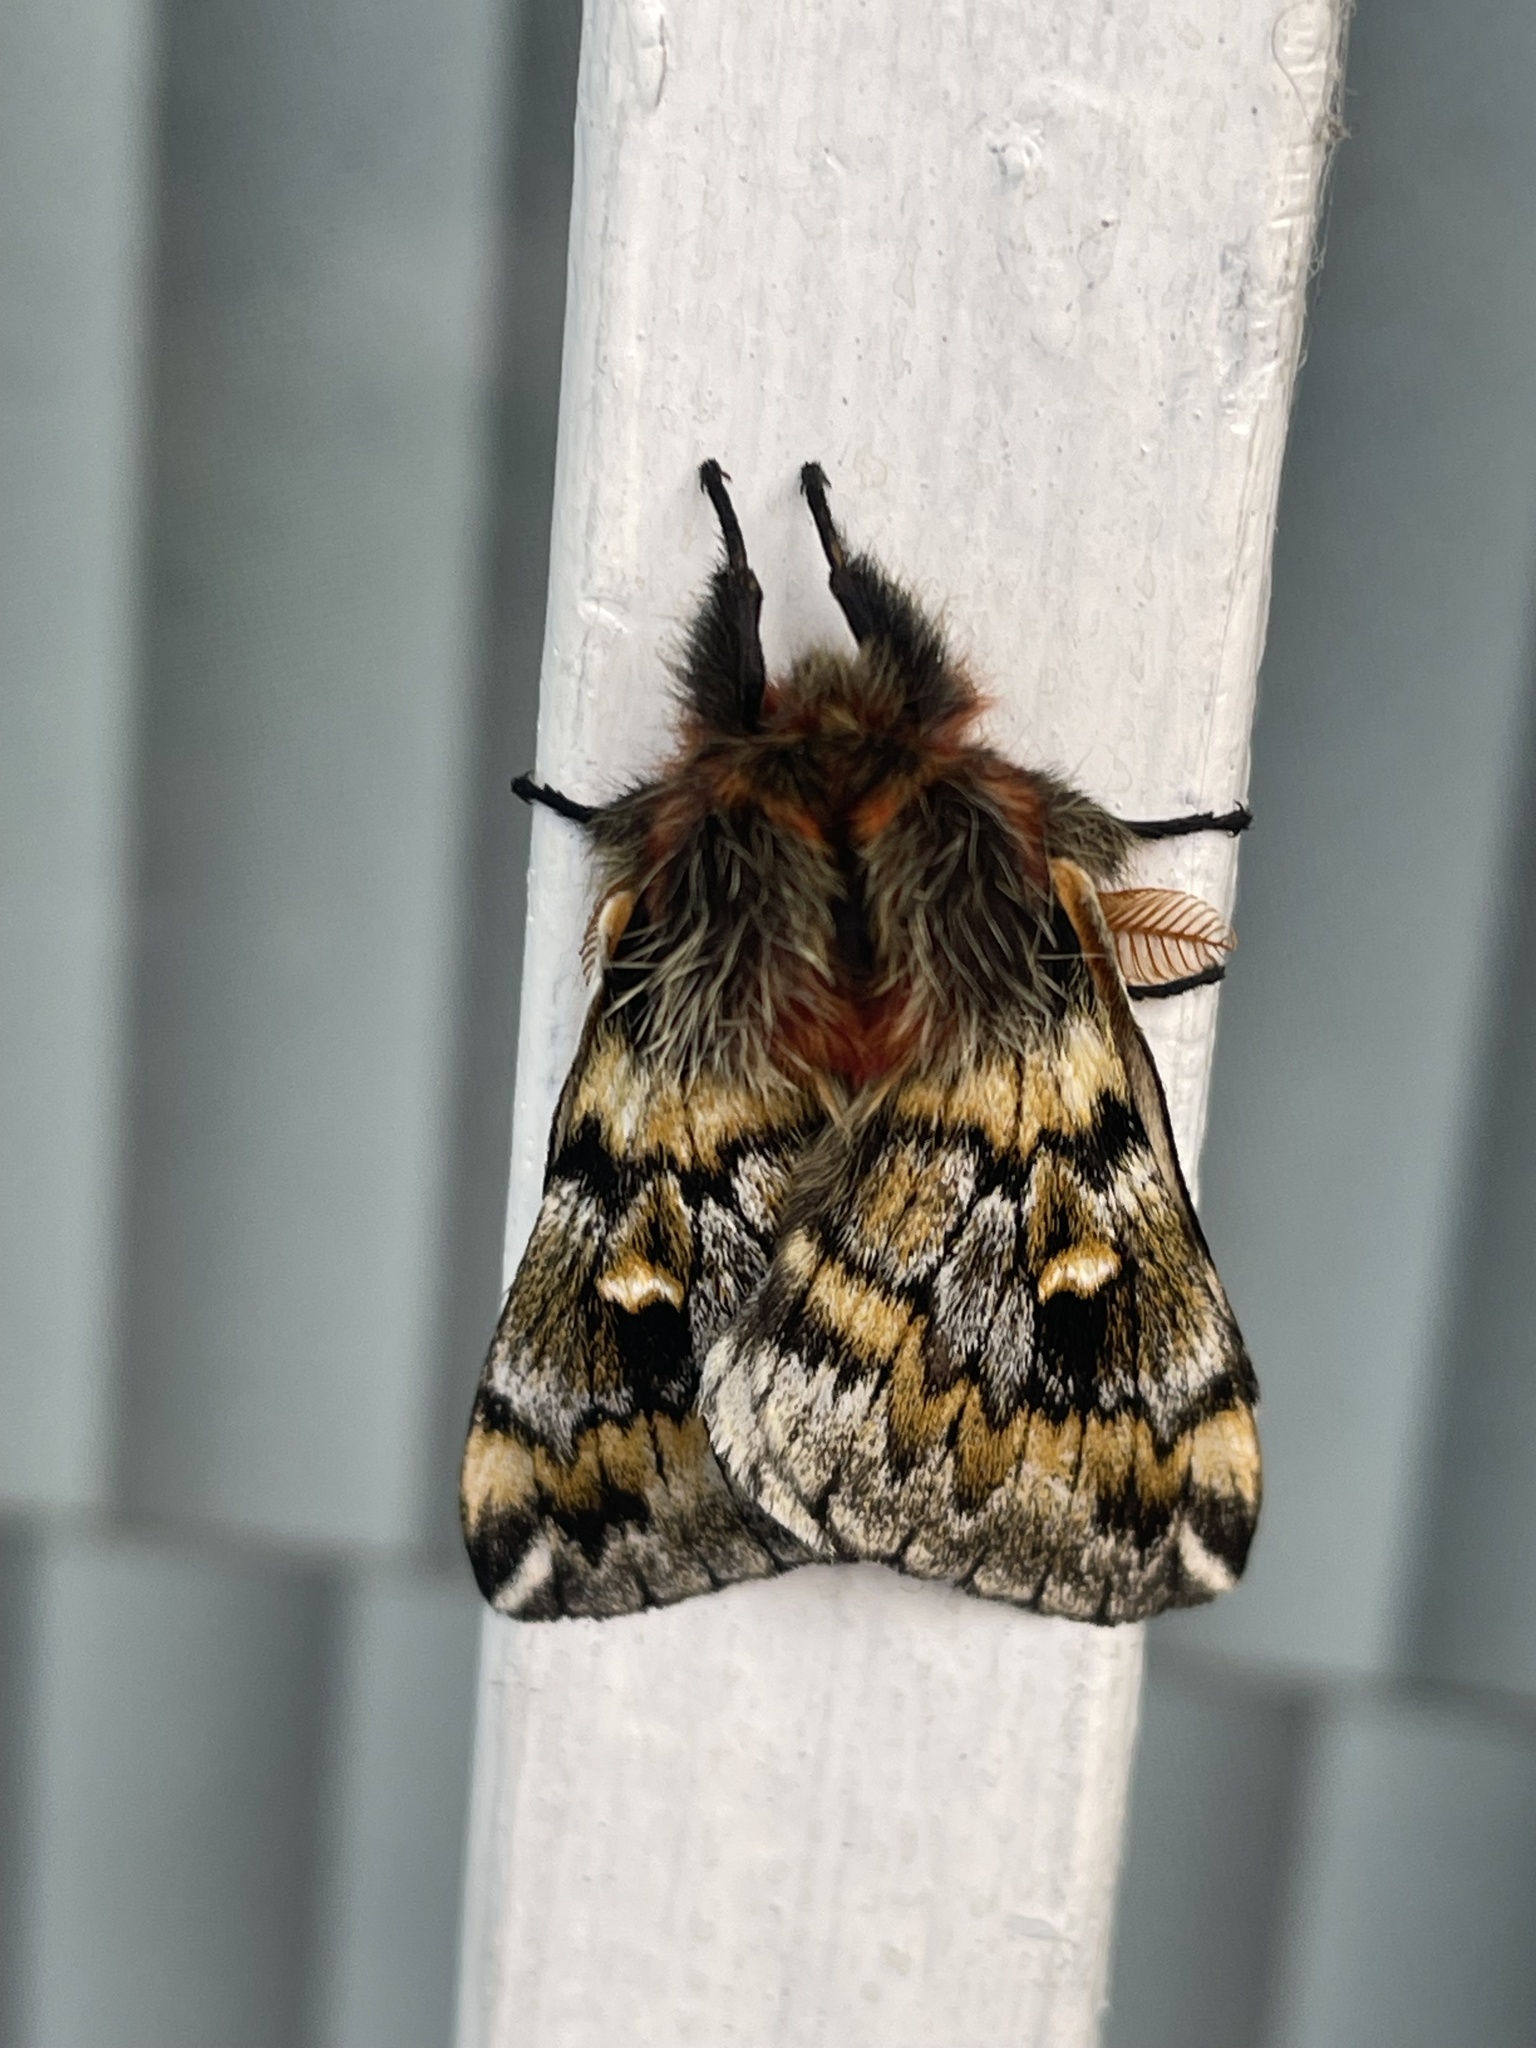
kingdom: Animalia
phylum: Arthropoda
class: Insecta
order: Lepidoptera
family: Saturniidae
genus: Ormiscodes
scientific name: Ormiscodes schmidtnielseni
